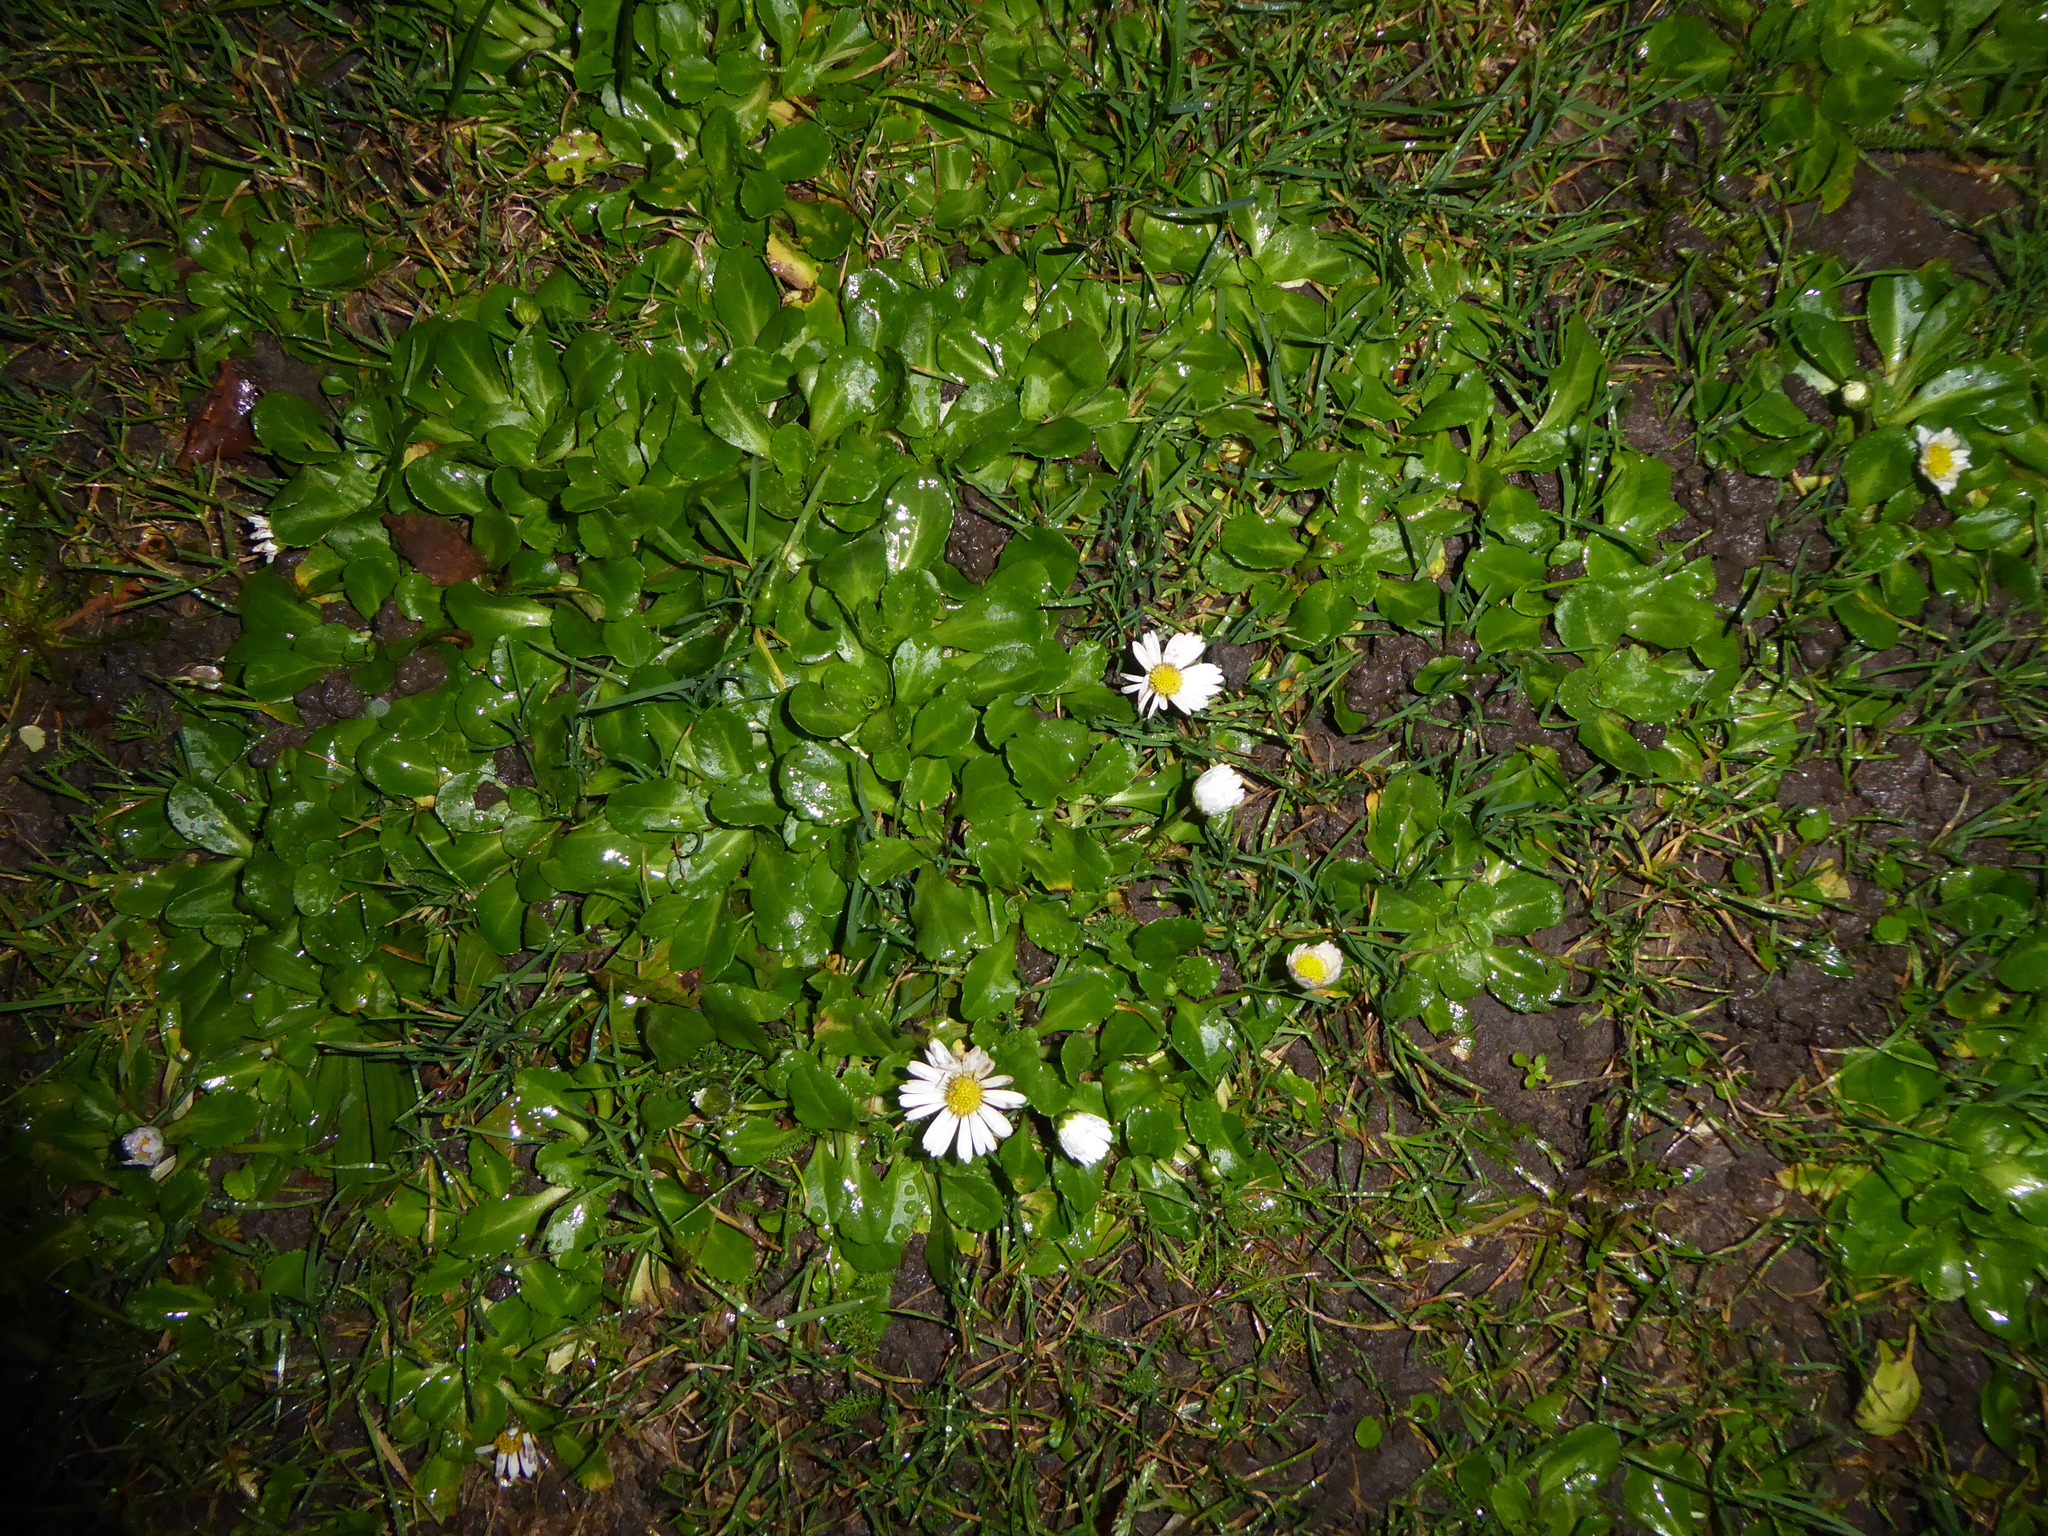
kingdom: Plantae
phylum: Tracheophyta
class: Magnoliopsida
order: Asterales
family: Asteraceae
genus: Bellis
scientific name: Bellis perennis
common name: Lawndaisy
